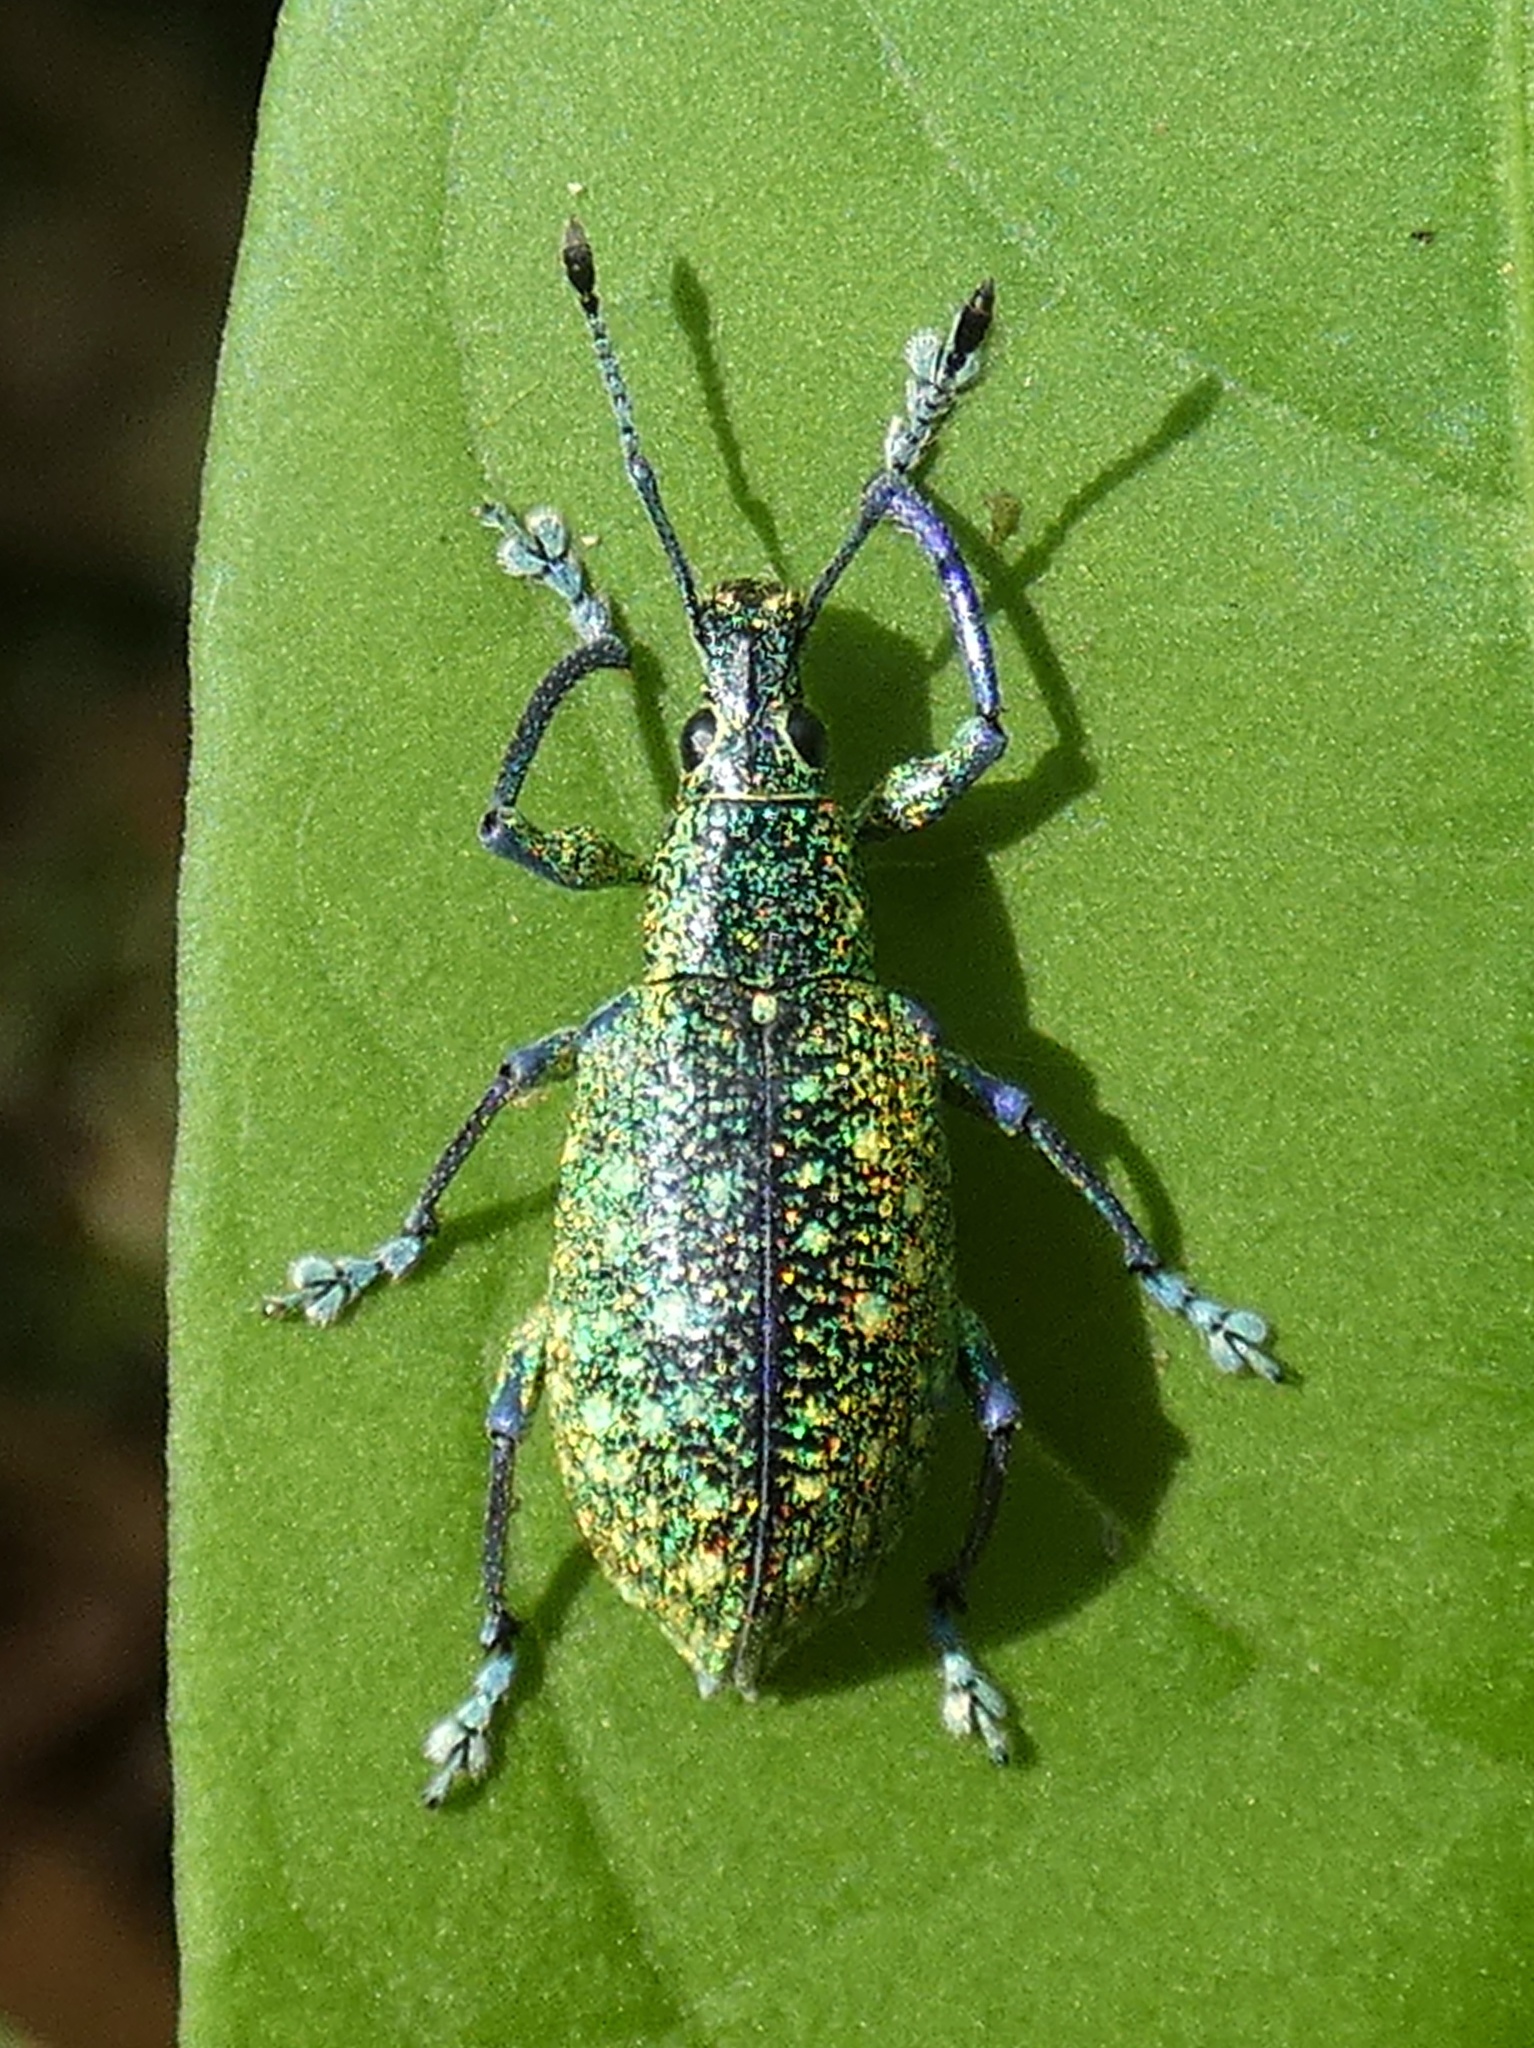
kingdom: Animalia
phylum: Arthropoda
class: Insecta
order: Coleoptera
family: Curculionidae
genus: Exophthalmus
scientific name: Exophthalmus jekelianus
